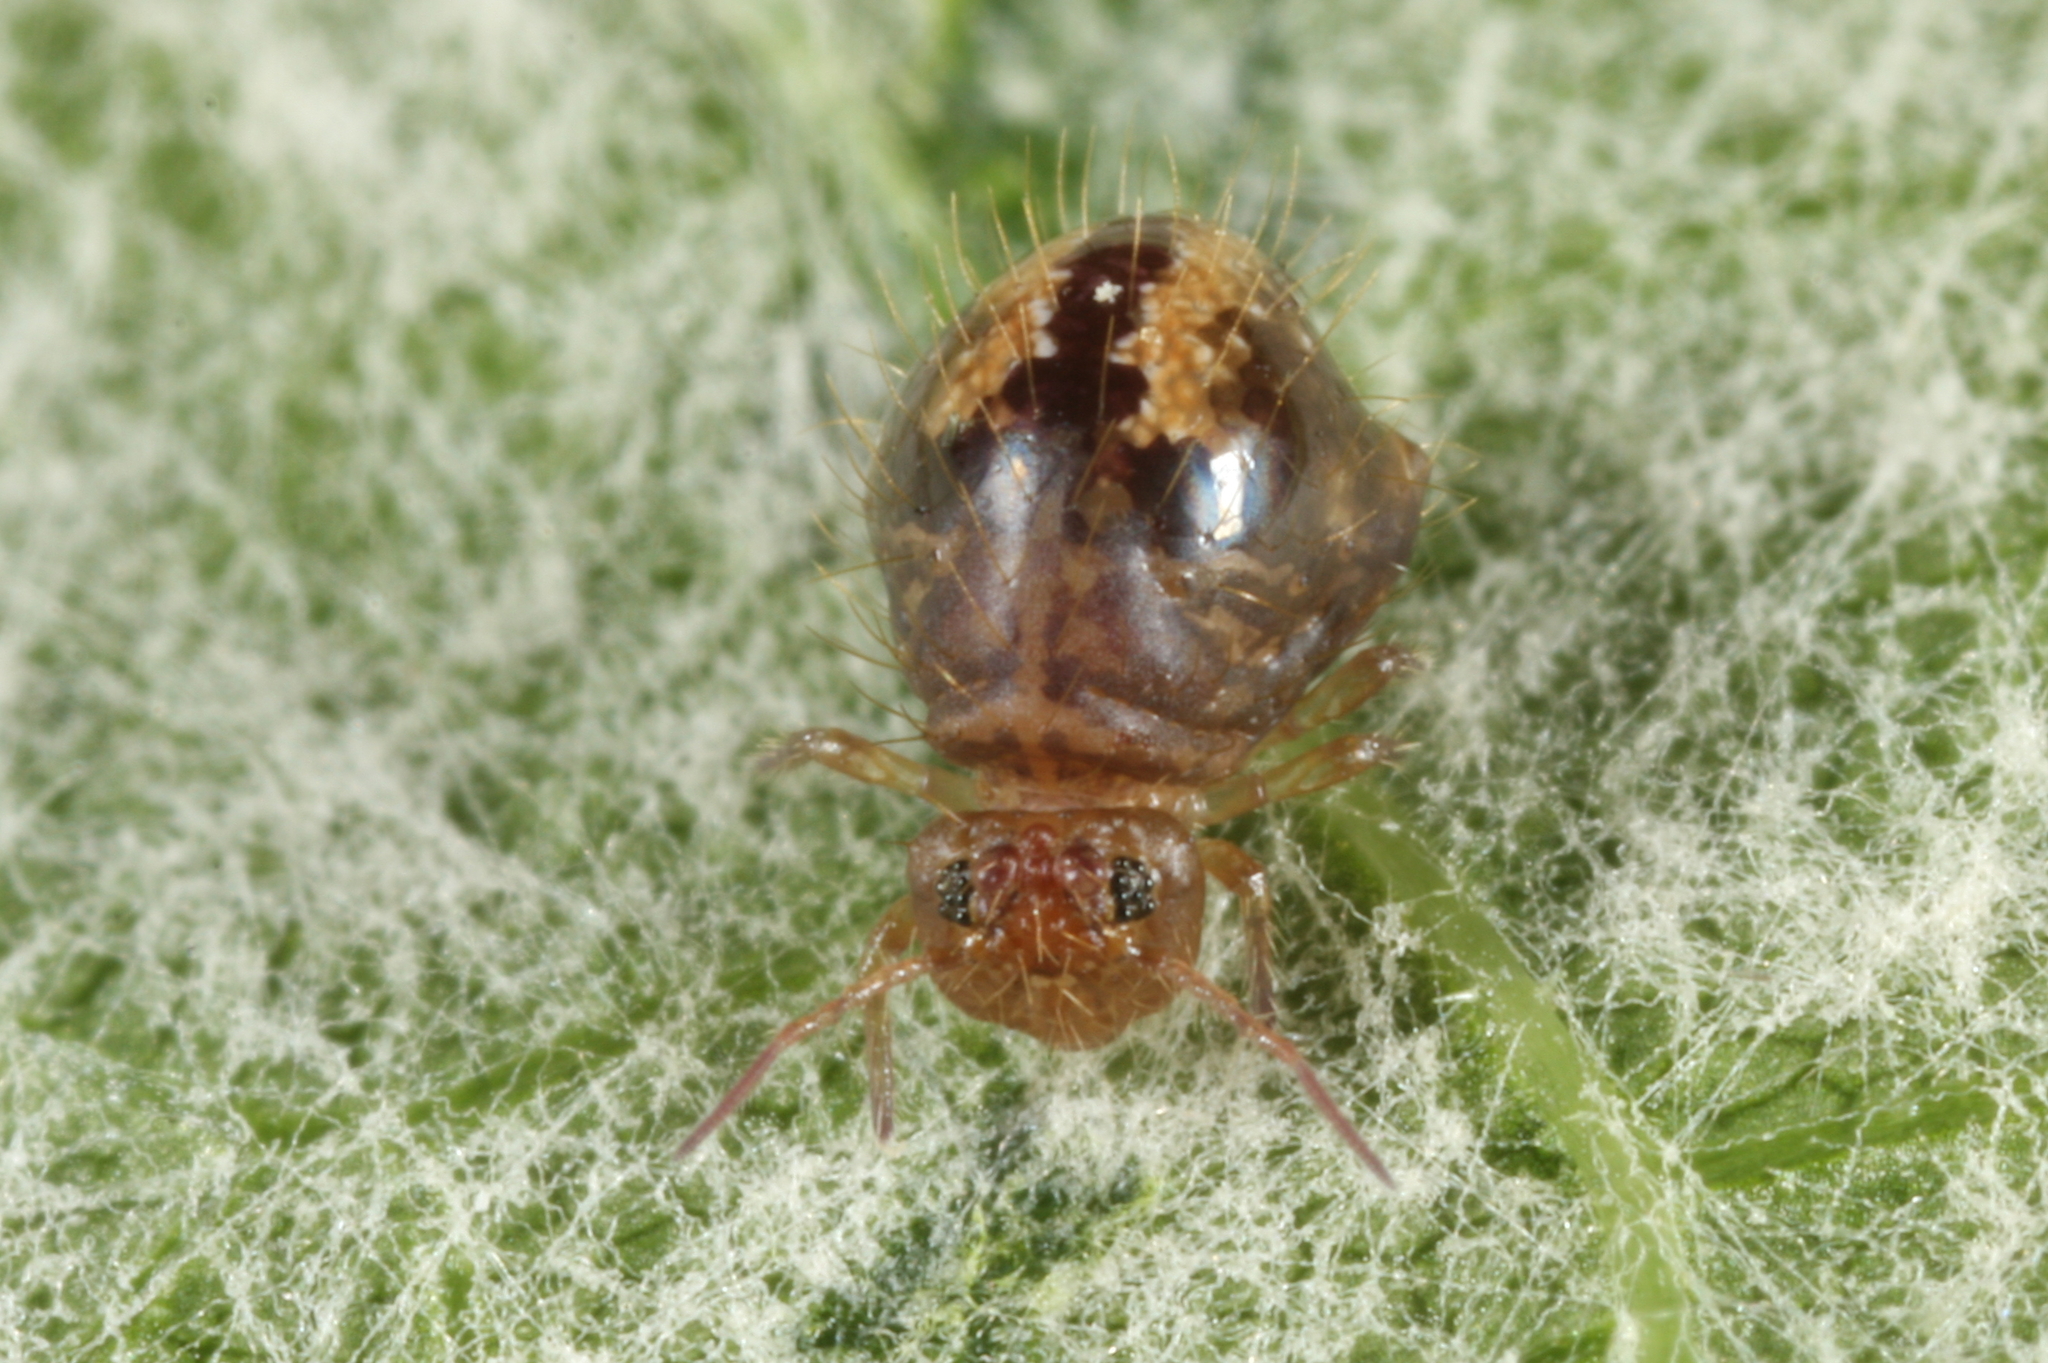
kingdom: Animalia
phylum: Arthropoda
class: Collembola
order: Symphypleona
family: Sminthuridae
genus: Allacma
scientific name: Allacma fusca
